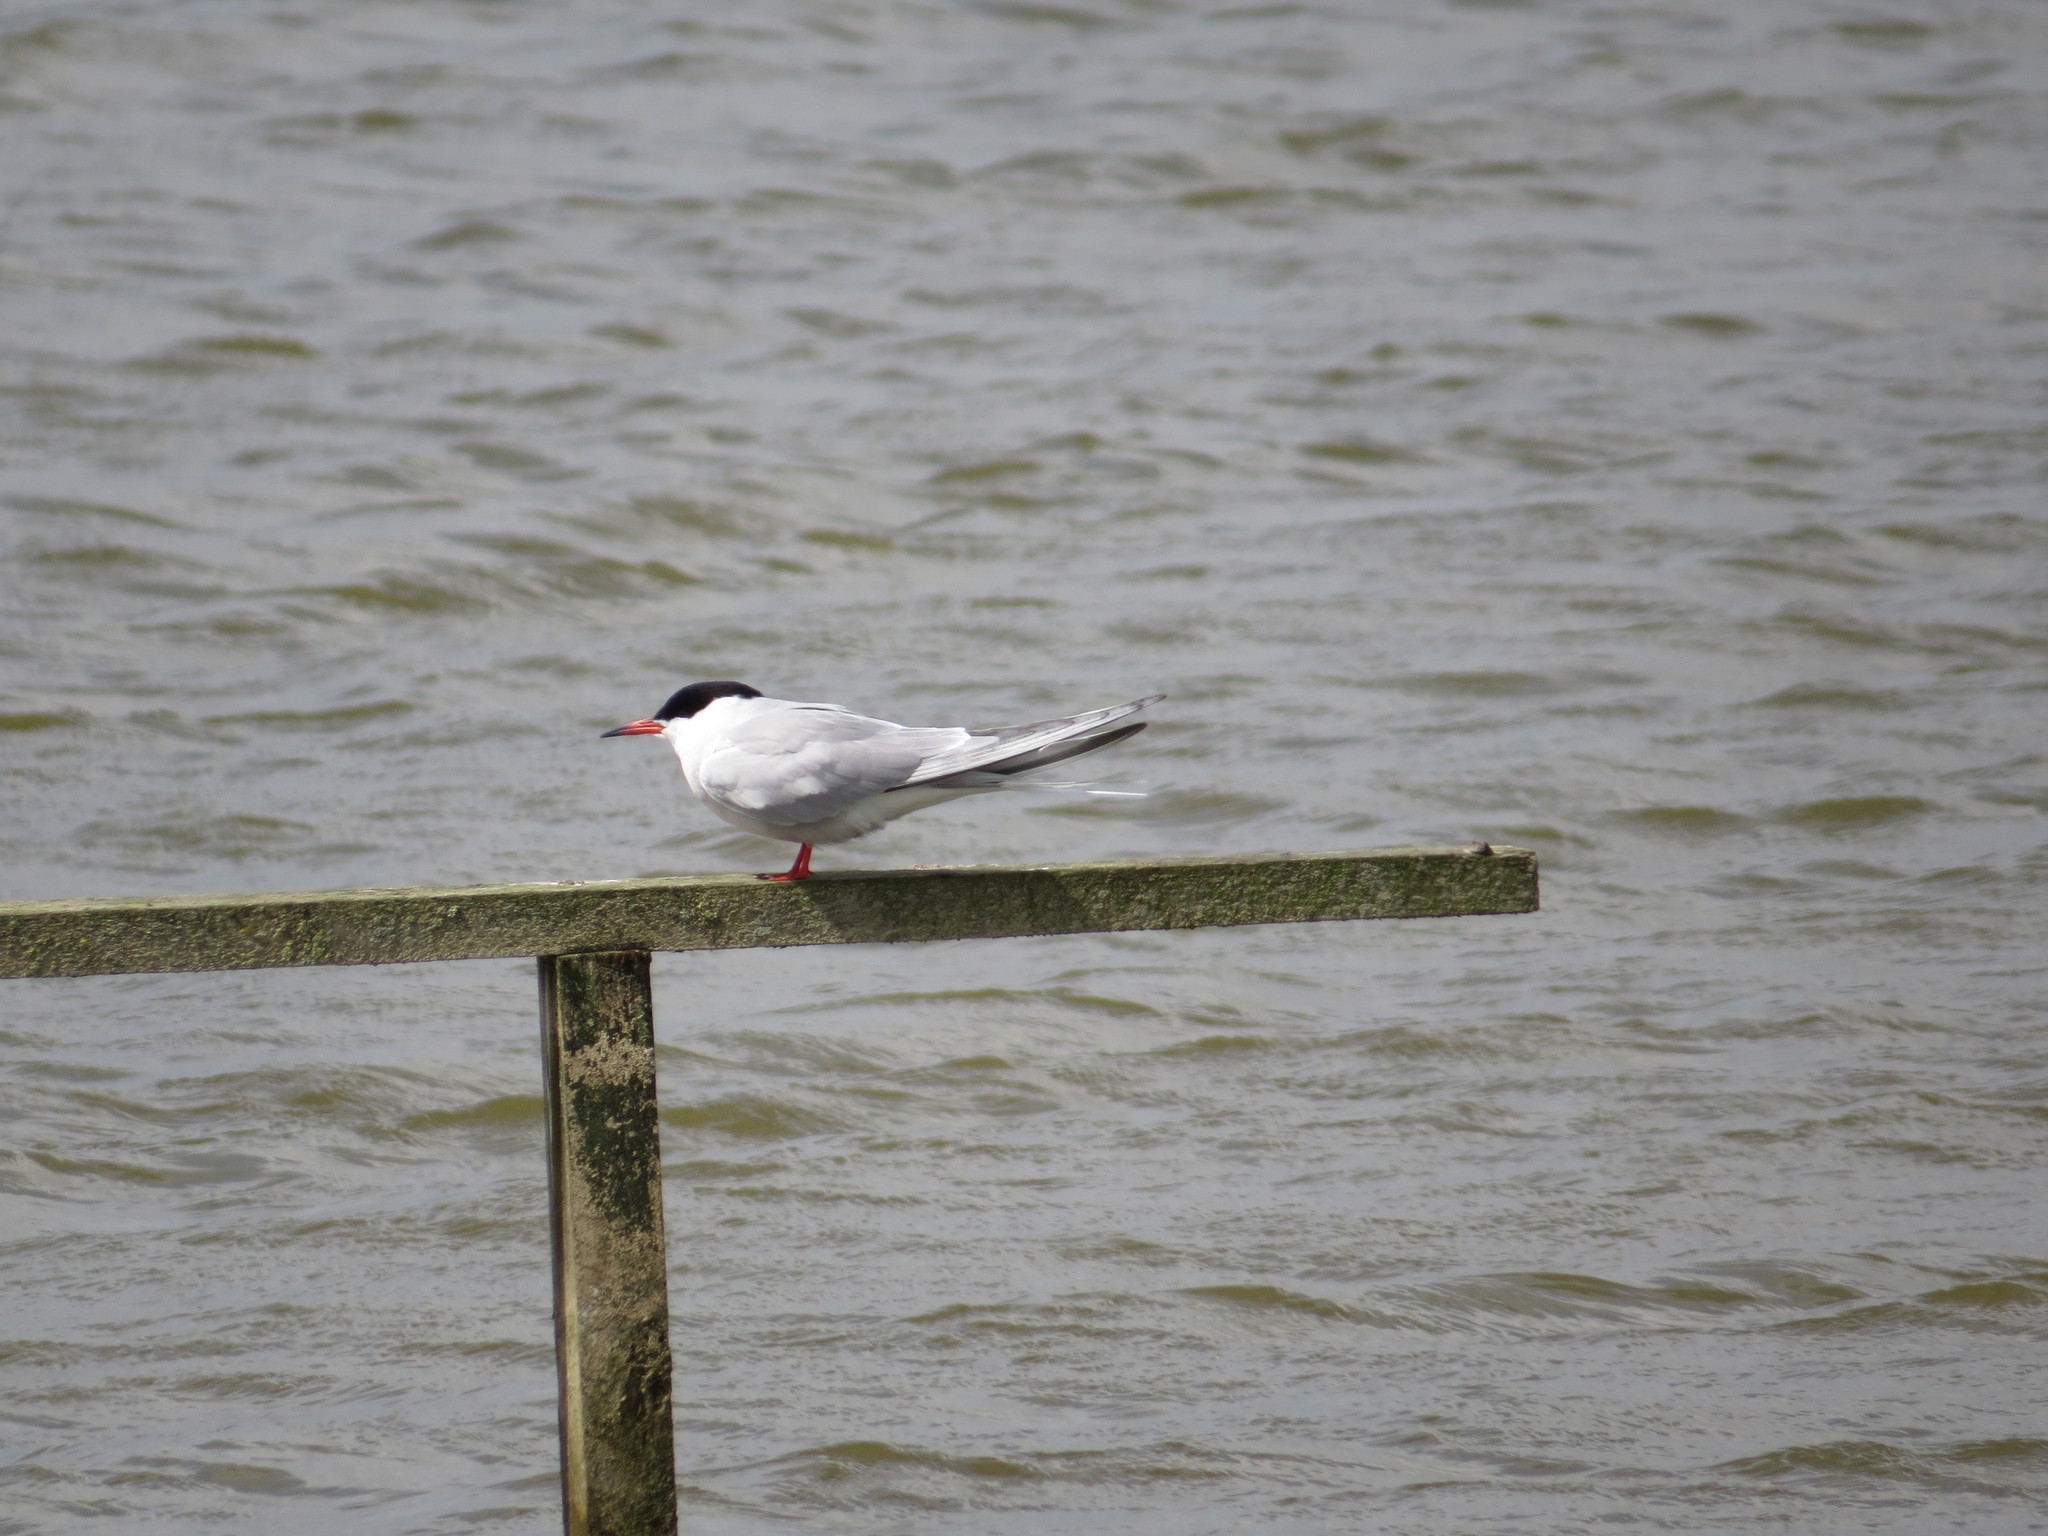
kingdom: Animalia
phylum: Chordata
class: Aves
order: Charadriiformes
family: Laridae
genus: Sterna
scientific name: Sterna hirundo
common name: Common tern
